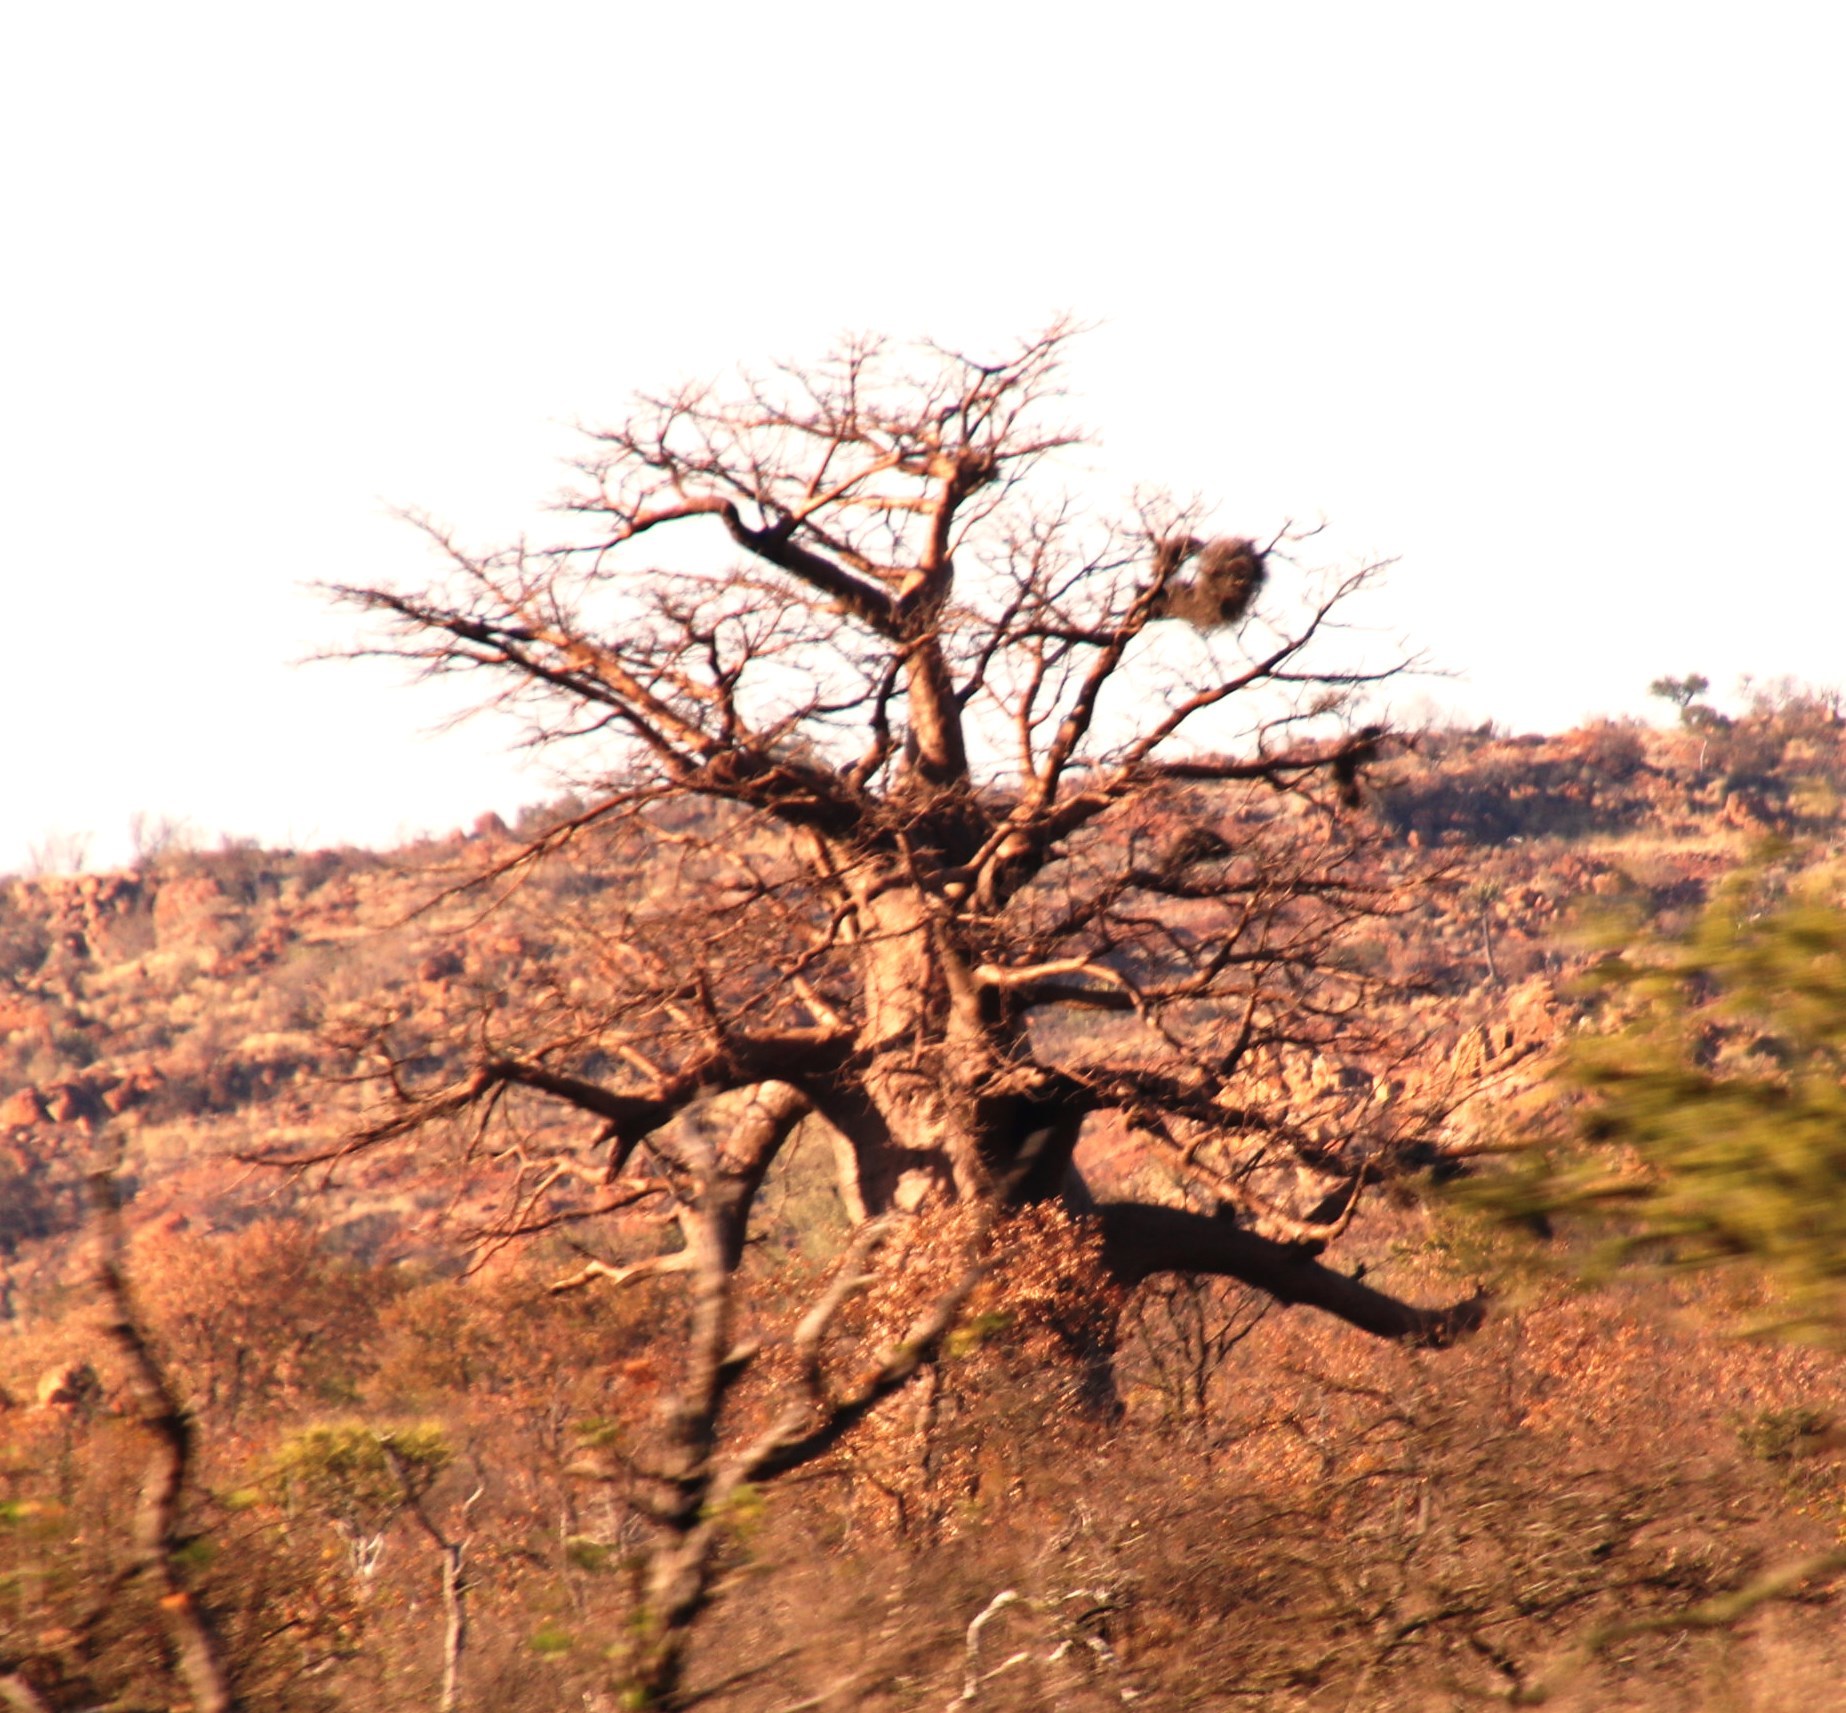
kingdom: Plantae
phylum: Tracheophyta
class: Magnoliopsida
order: Malvales
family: Malvaceae
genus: Adansonia
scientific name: Adansonia digitata
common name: Dead-rat-tree
